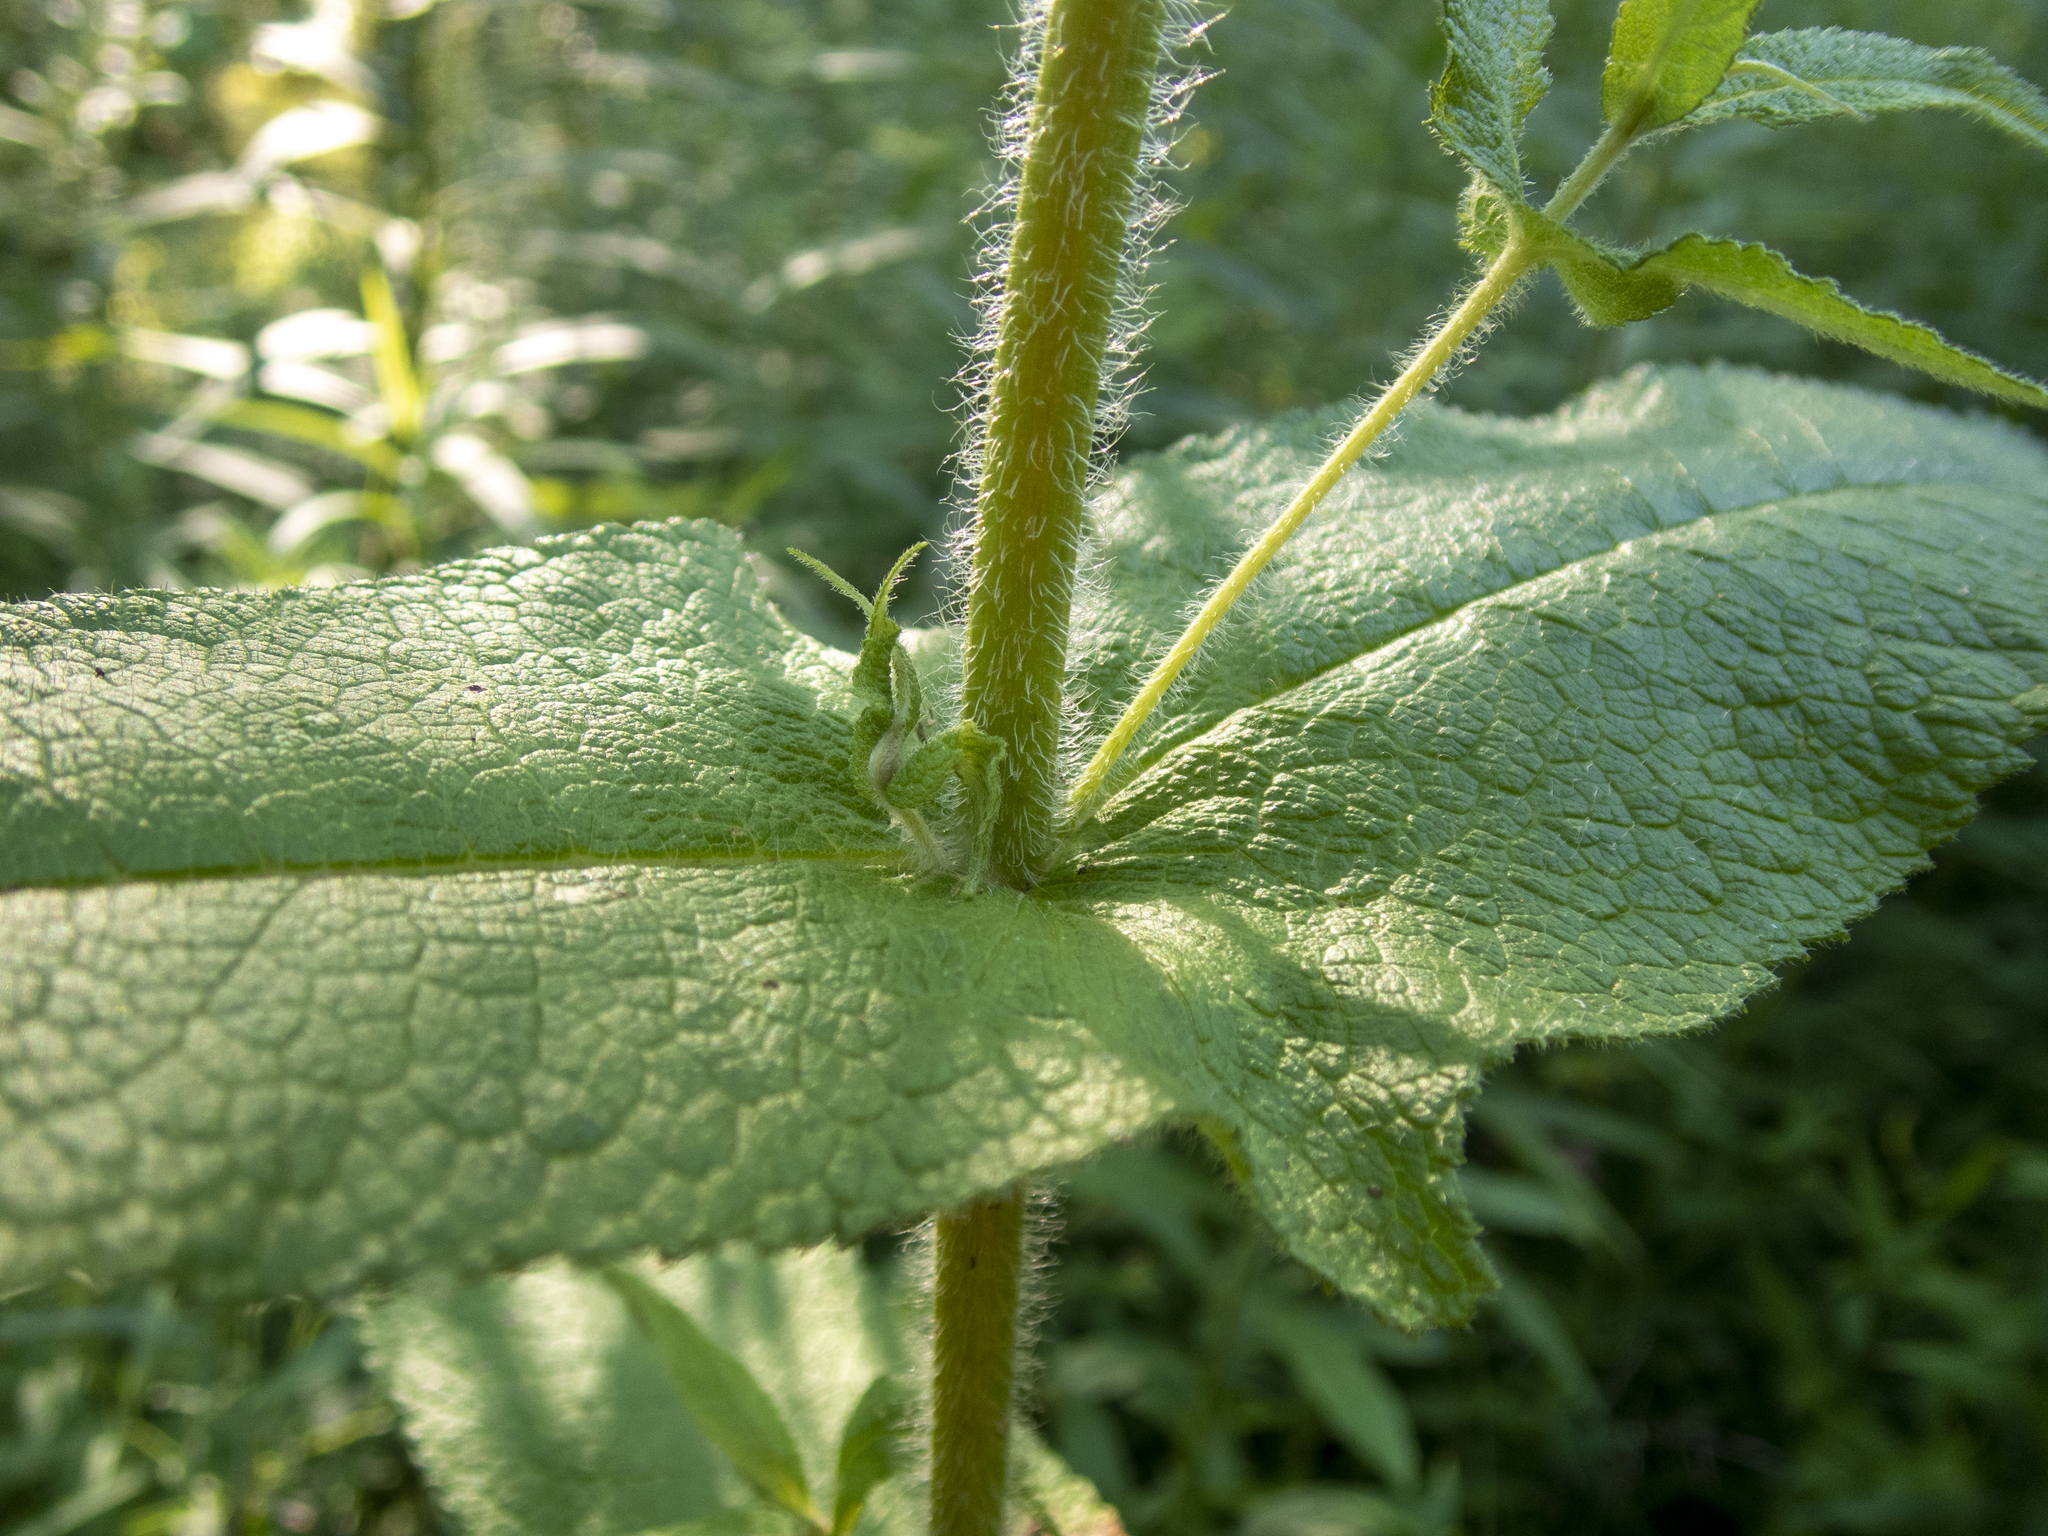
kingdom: Plantae
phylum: Tracheophyta
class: Magnoliopsida
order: Asterales
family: Asteraceae
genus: Eupatorium
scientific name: Eupatorium perfoliatum
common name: Boneset
